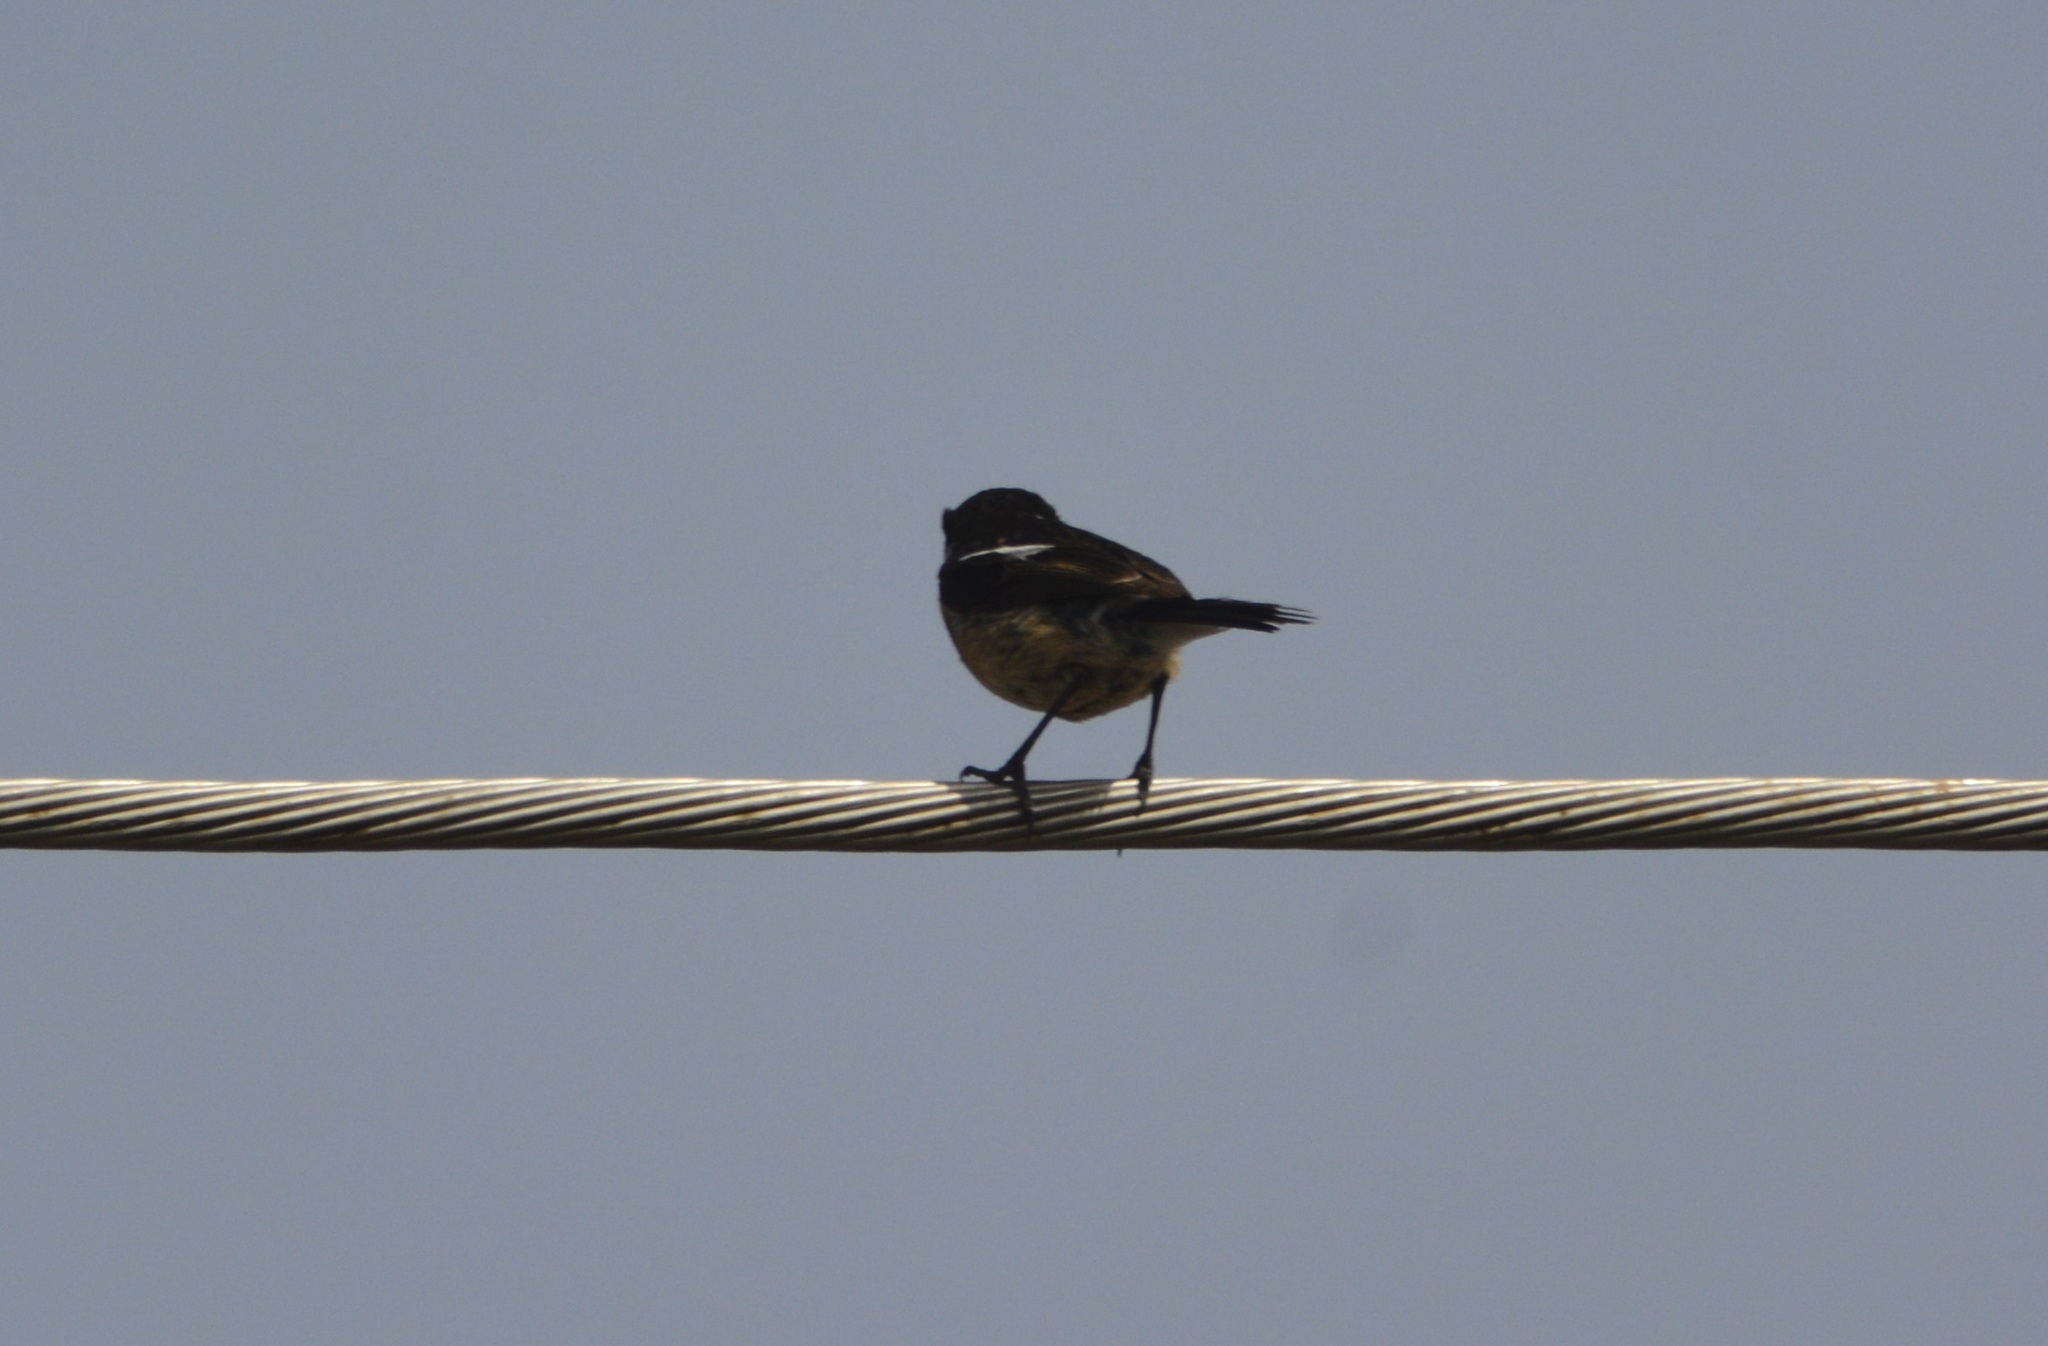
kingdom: Animalia
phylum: Chordata
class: Aves
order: Passeriformes
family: Muscicapidae
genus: Saxicola
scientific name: Saxicola rubicola
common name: European stonechat
